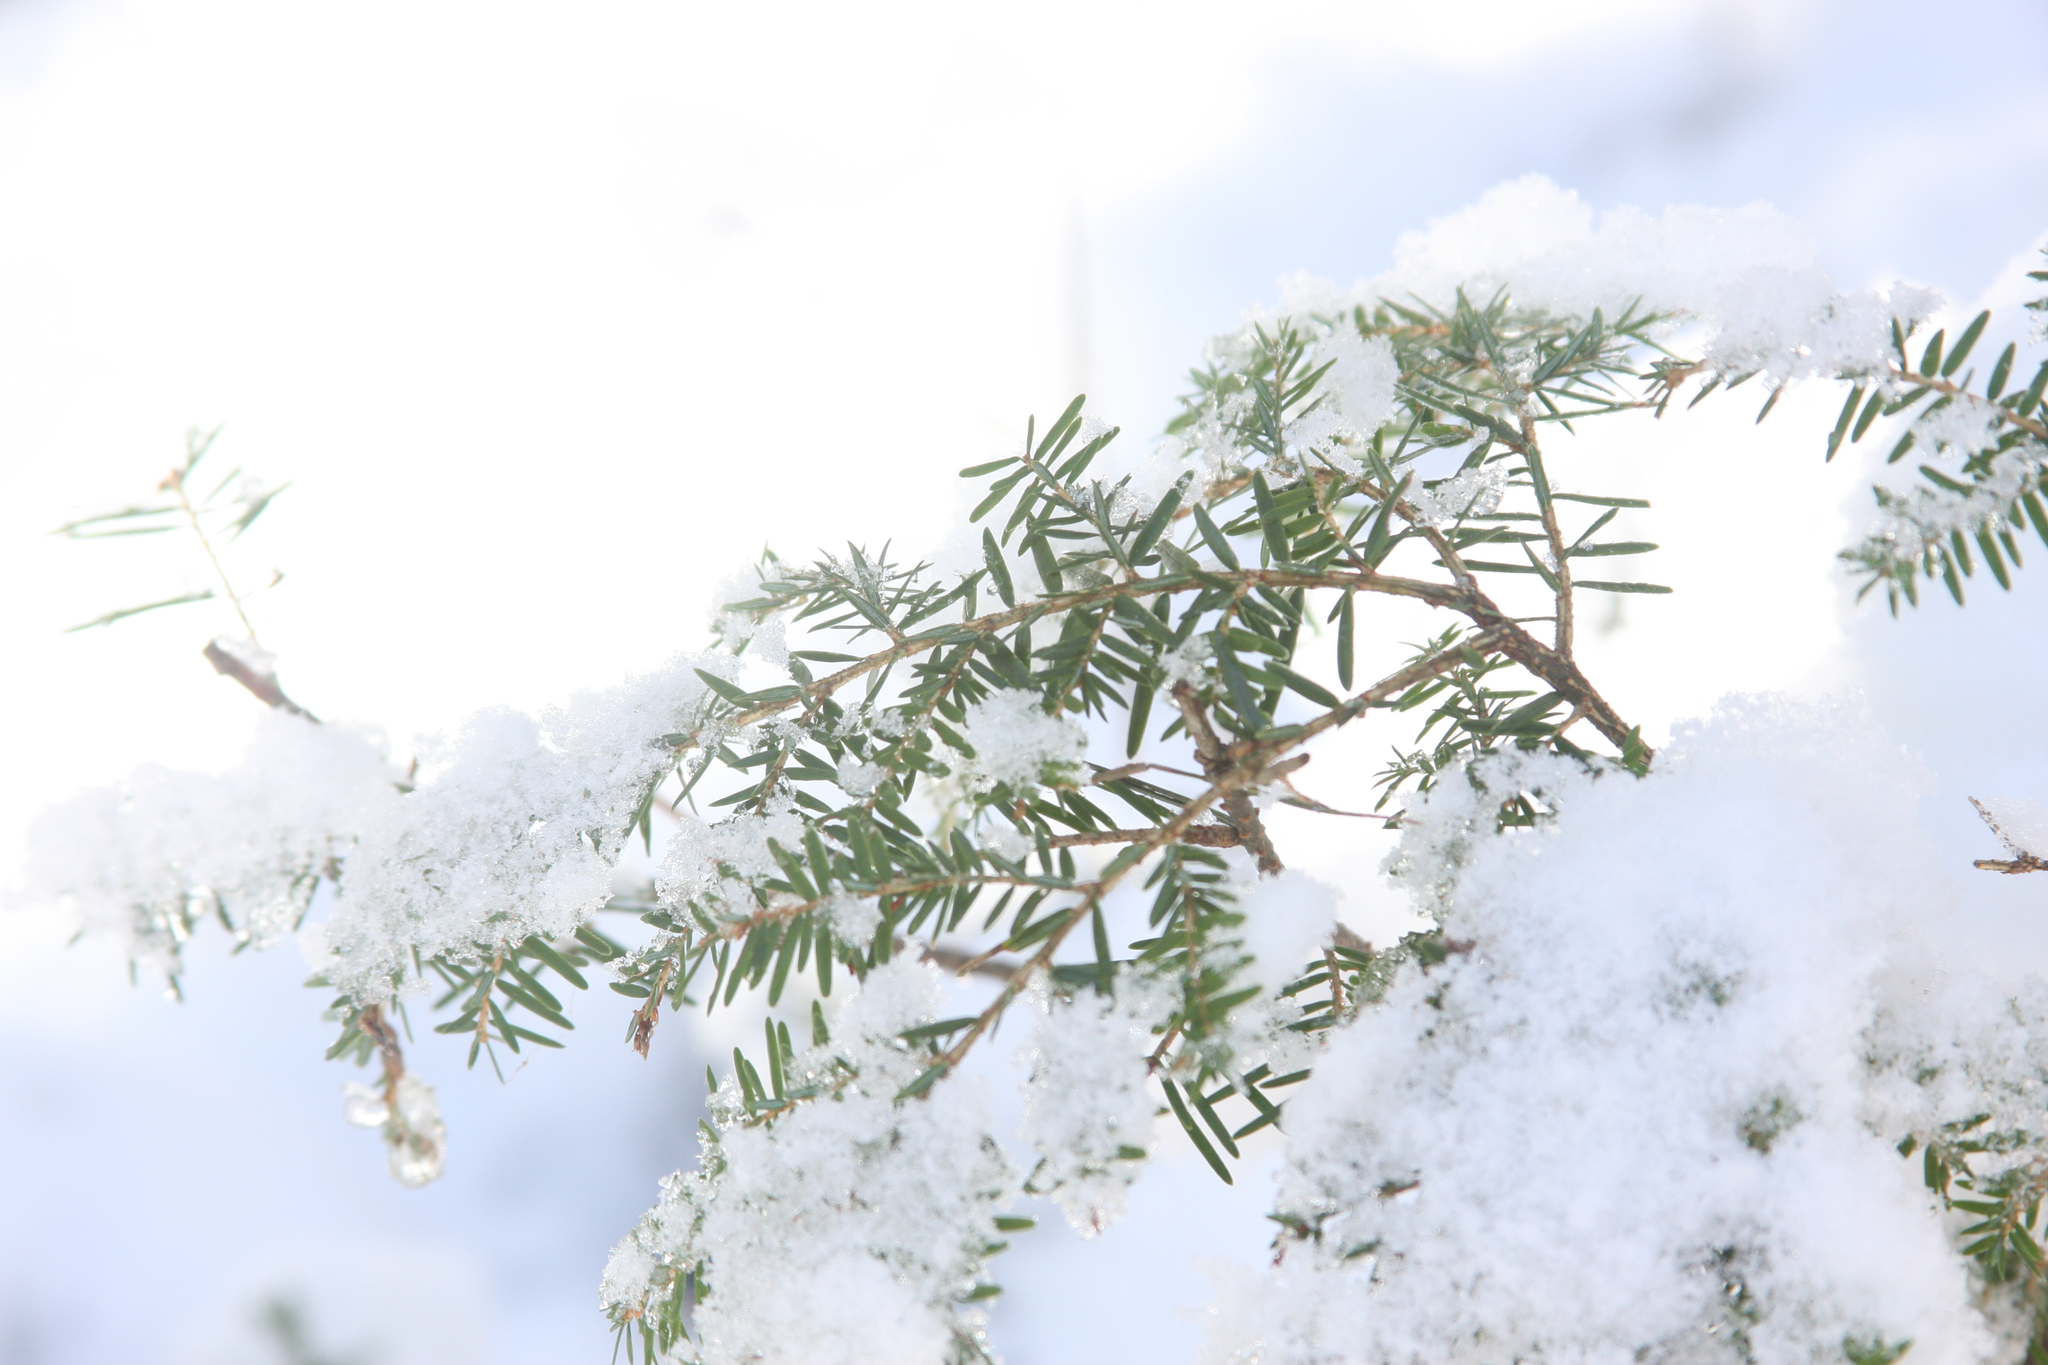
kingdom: Plantae
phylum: Tracheophyta
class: Pinopsida
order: Pinales
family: Pinaceae
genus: Tsuga
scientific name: Tsuga canadensis
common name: Eastern hemlock
